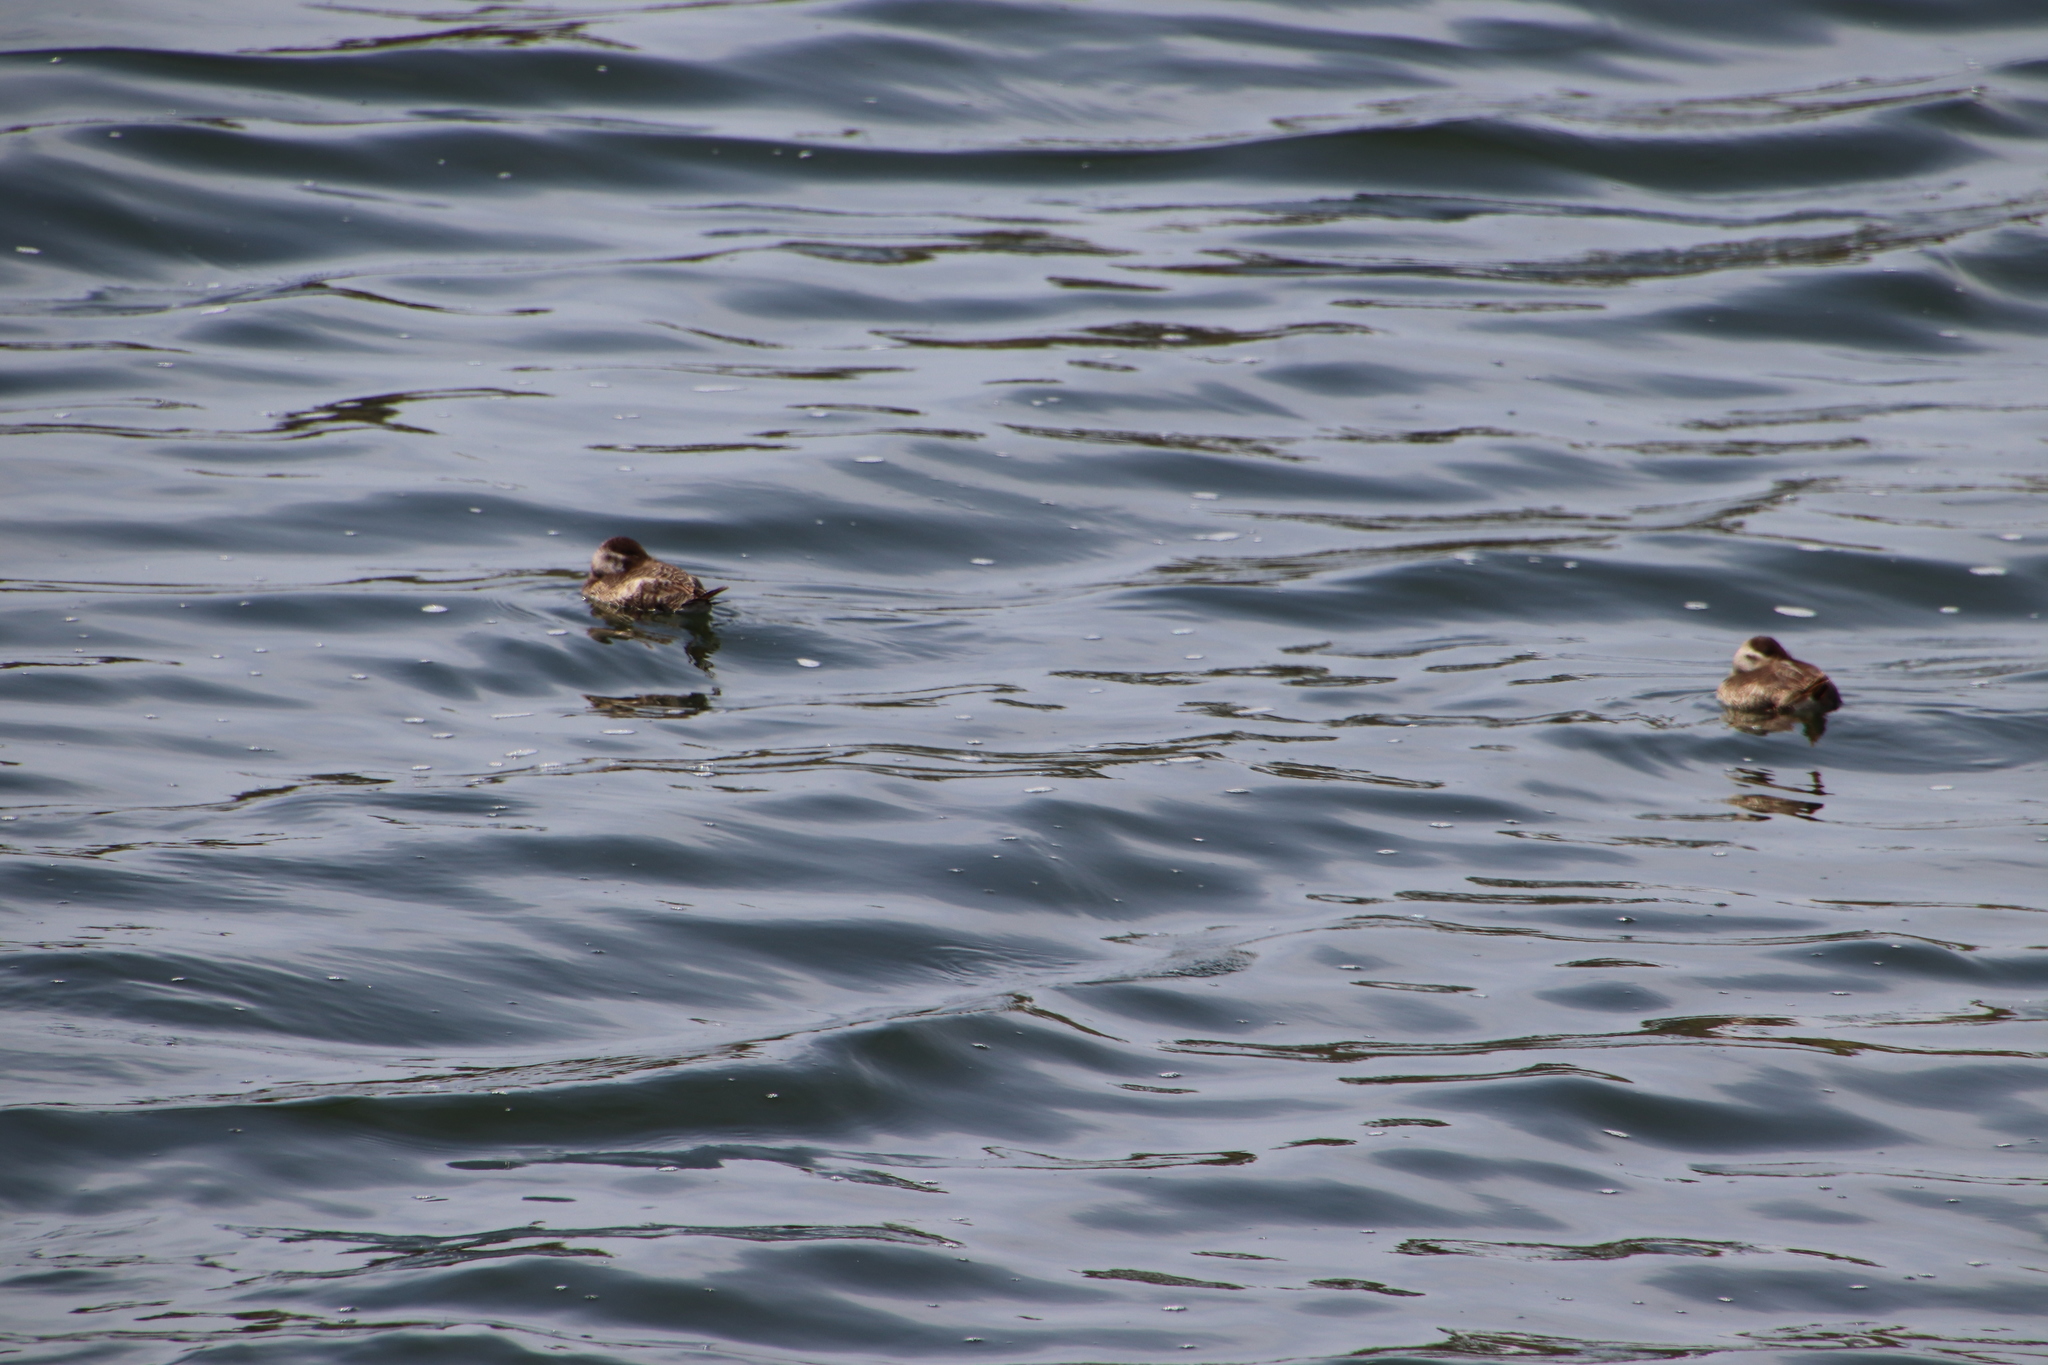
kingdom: Animalia
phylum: Chordata
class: Aves
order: Anseriformes
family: Anatidae
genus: Oxyura
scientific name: Oxyura jamaicensis
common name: Ruddy duck
